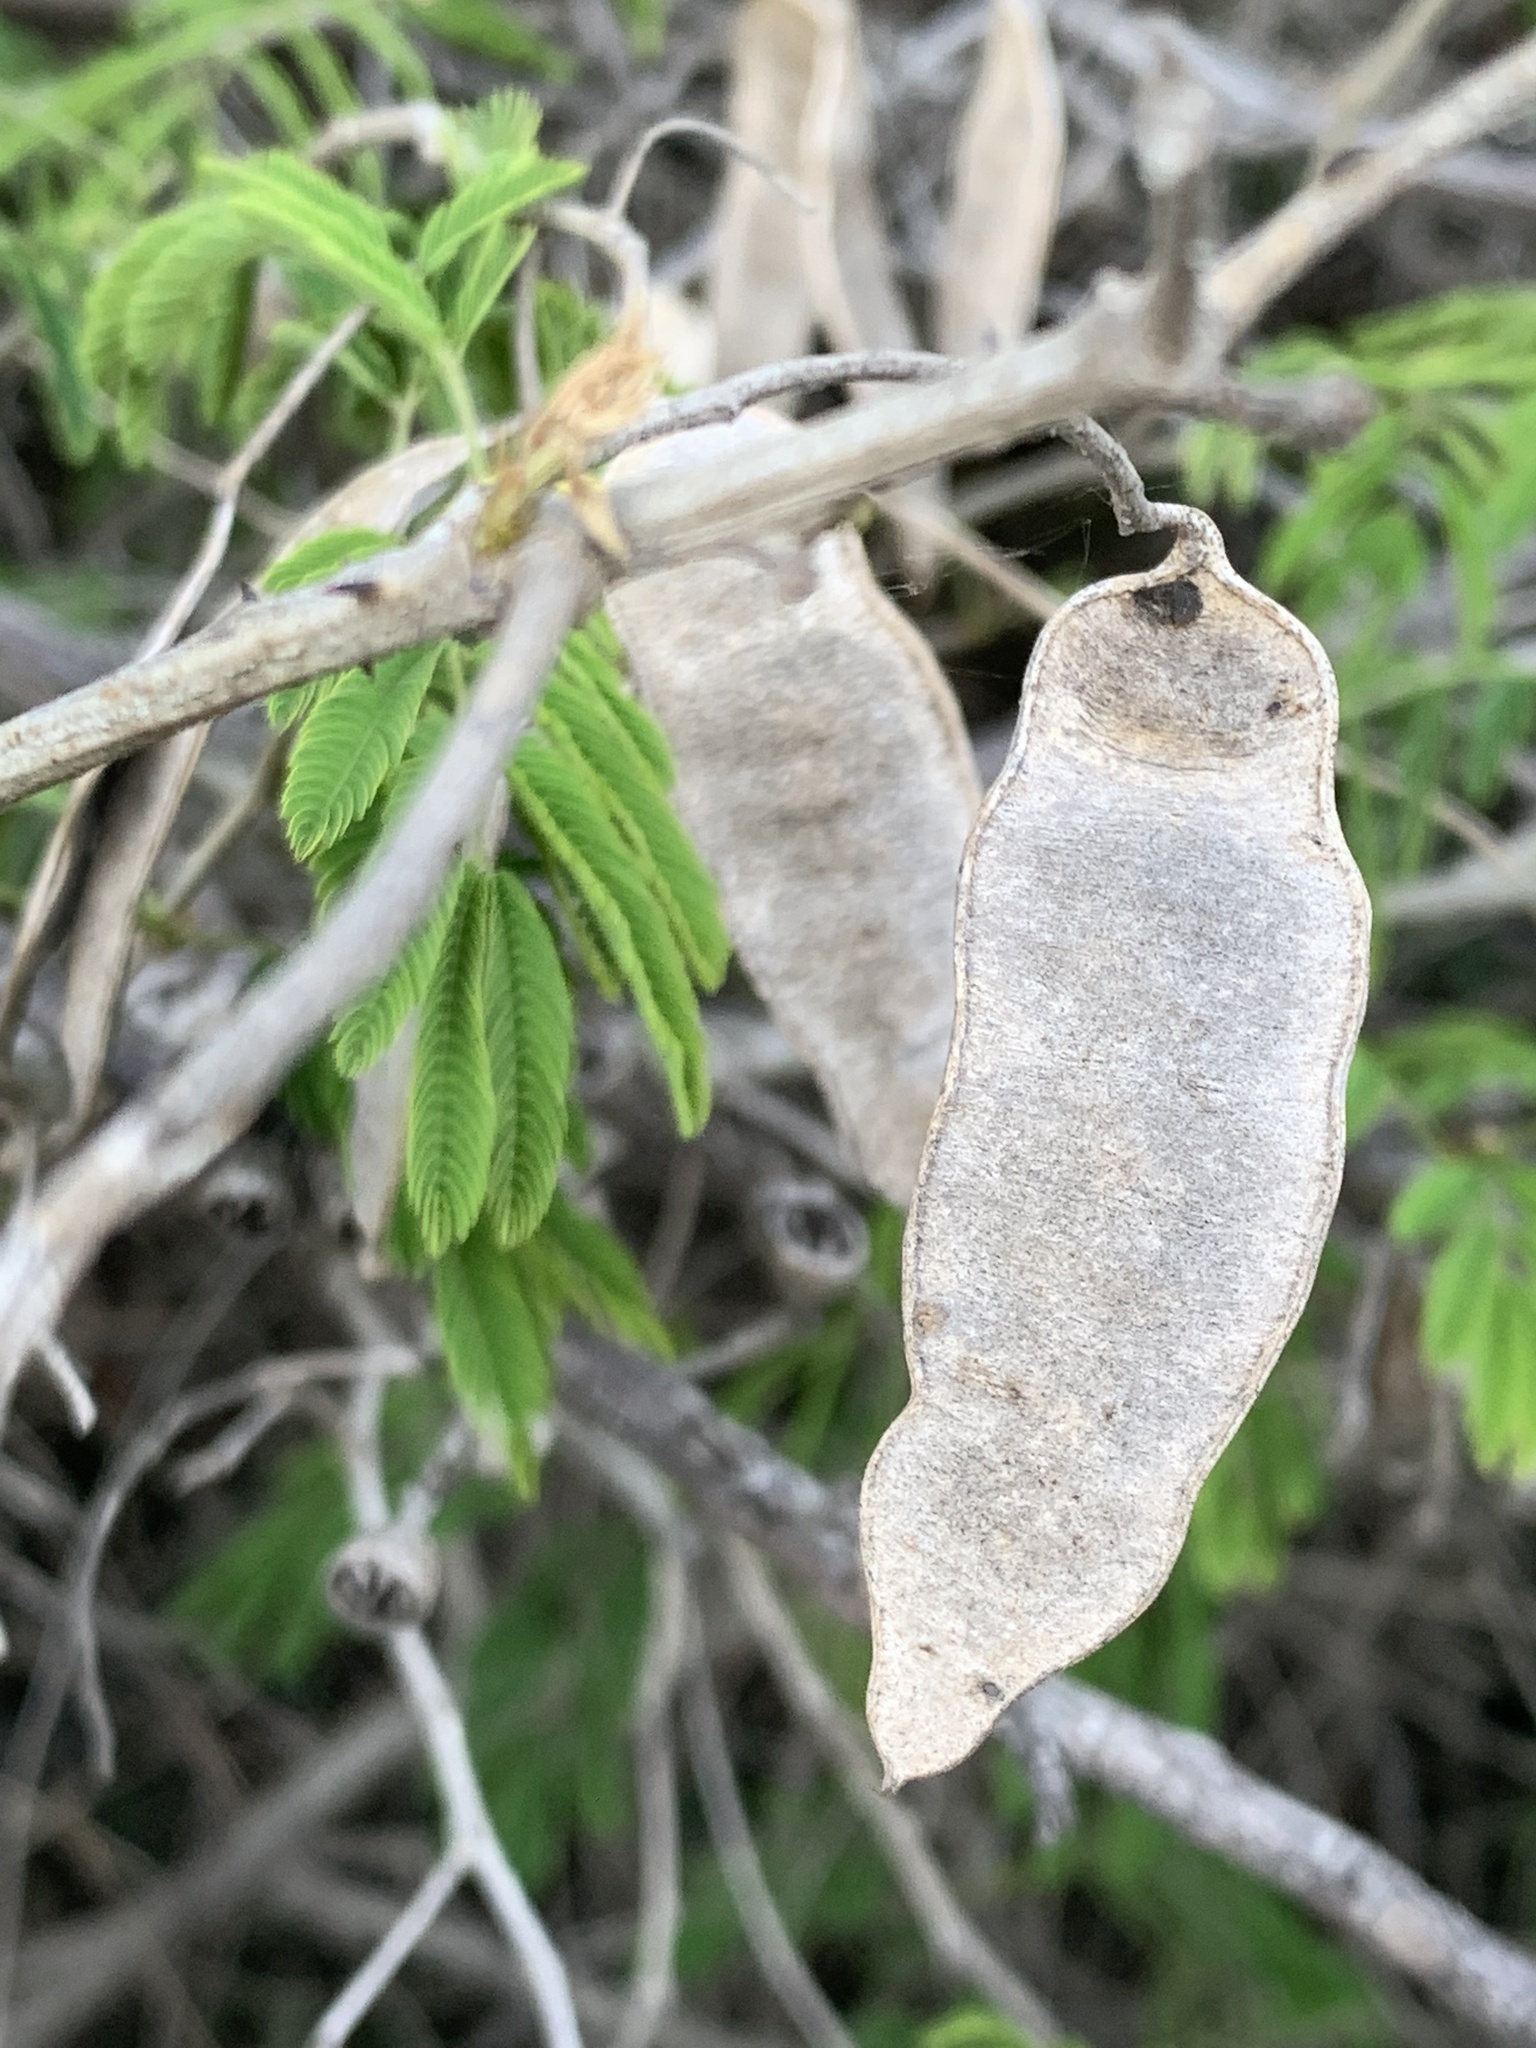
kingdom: Plantae
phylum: Tracheophyta
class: Magnoliopsida
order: Fabales
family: Fabaceae
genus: Senegalia
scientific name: Senegalia bonariensis
